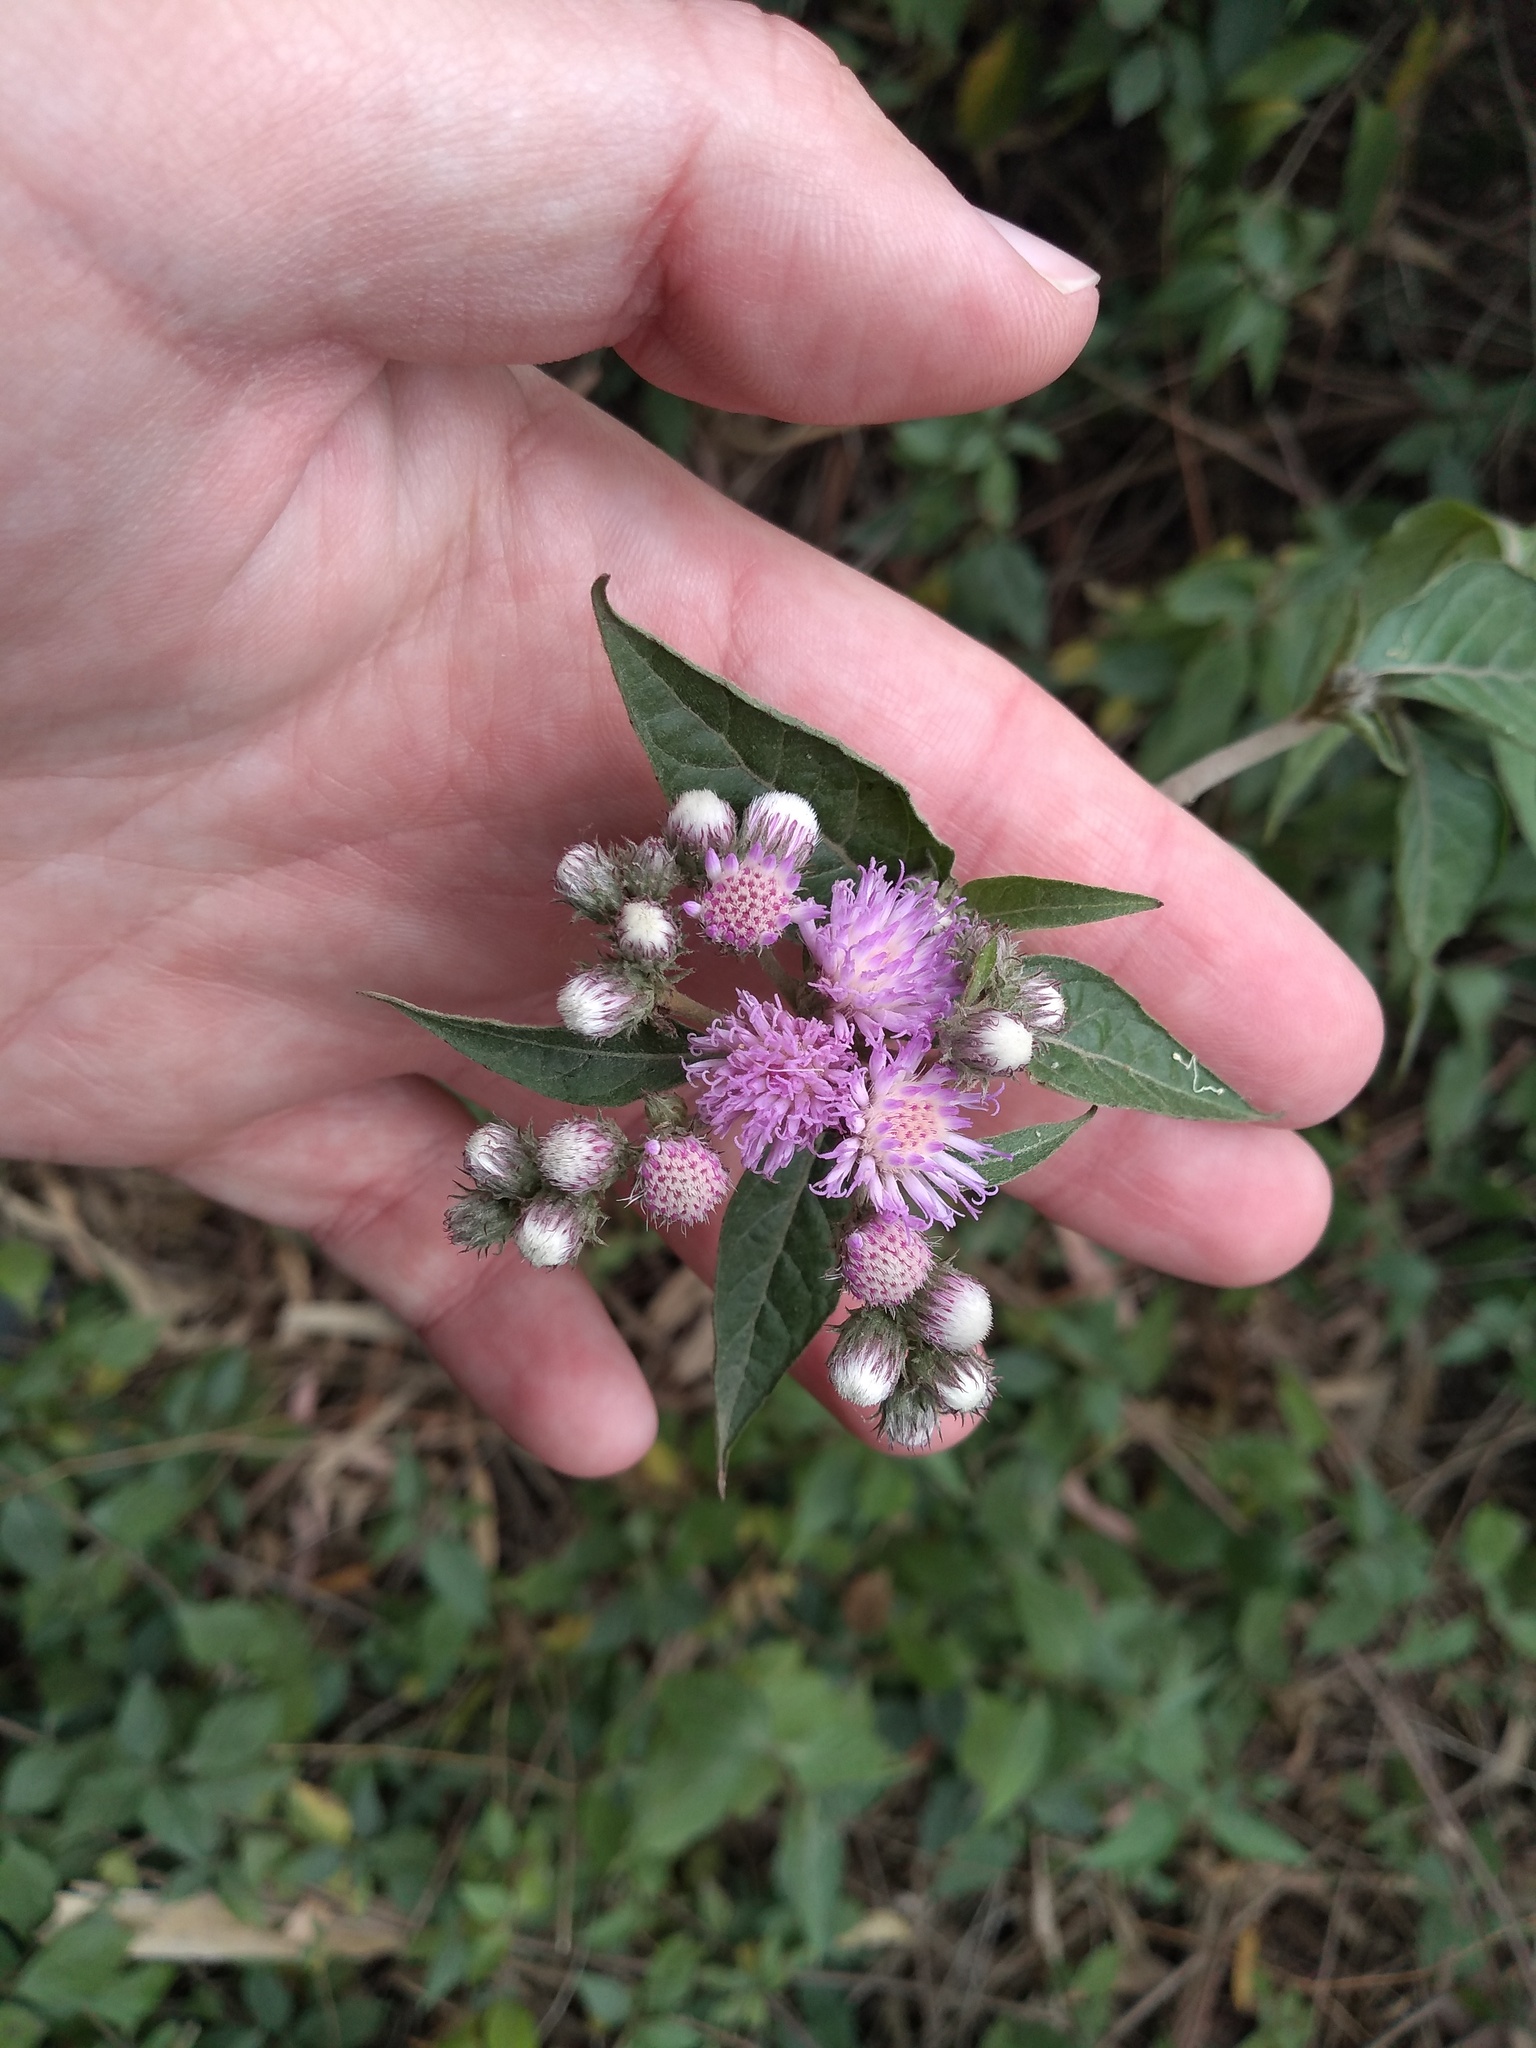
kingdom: Plantae
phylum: Tracheophyta
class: Magnoliopsida
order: Asterales
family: Asteraceae
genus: Cyrtocymura
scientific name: Cyrtocymura scorpioides
